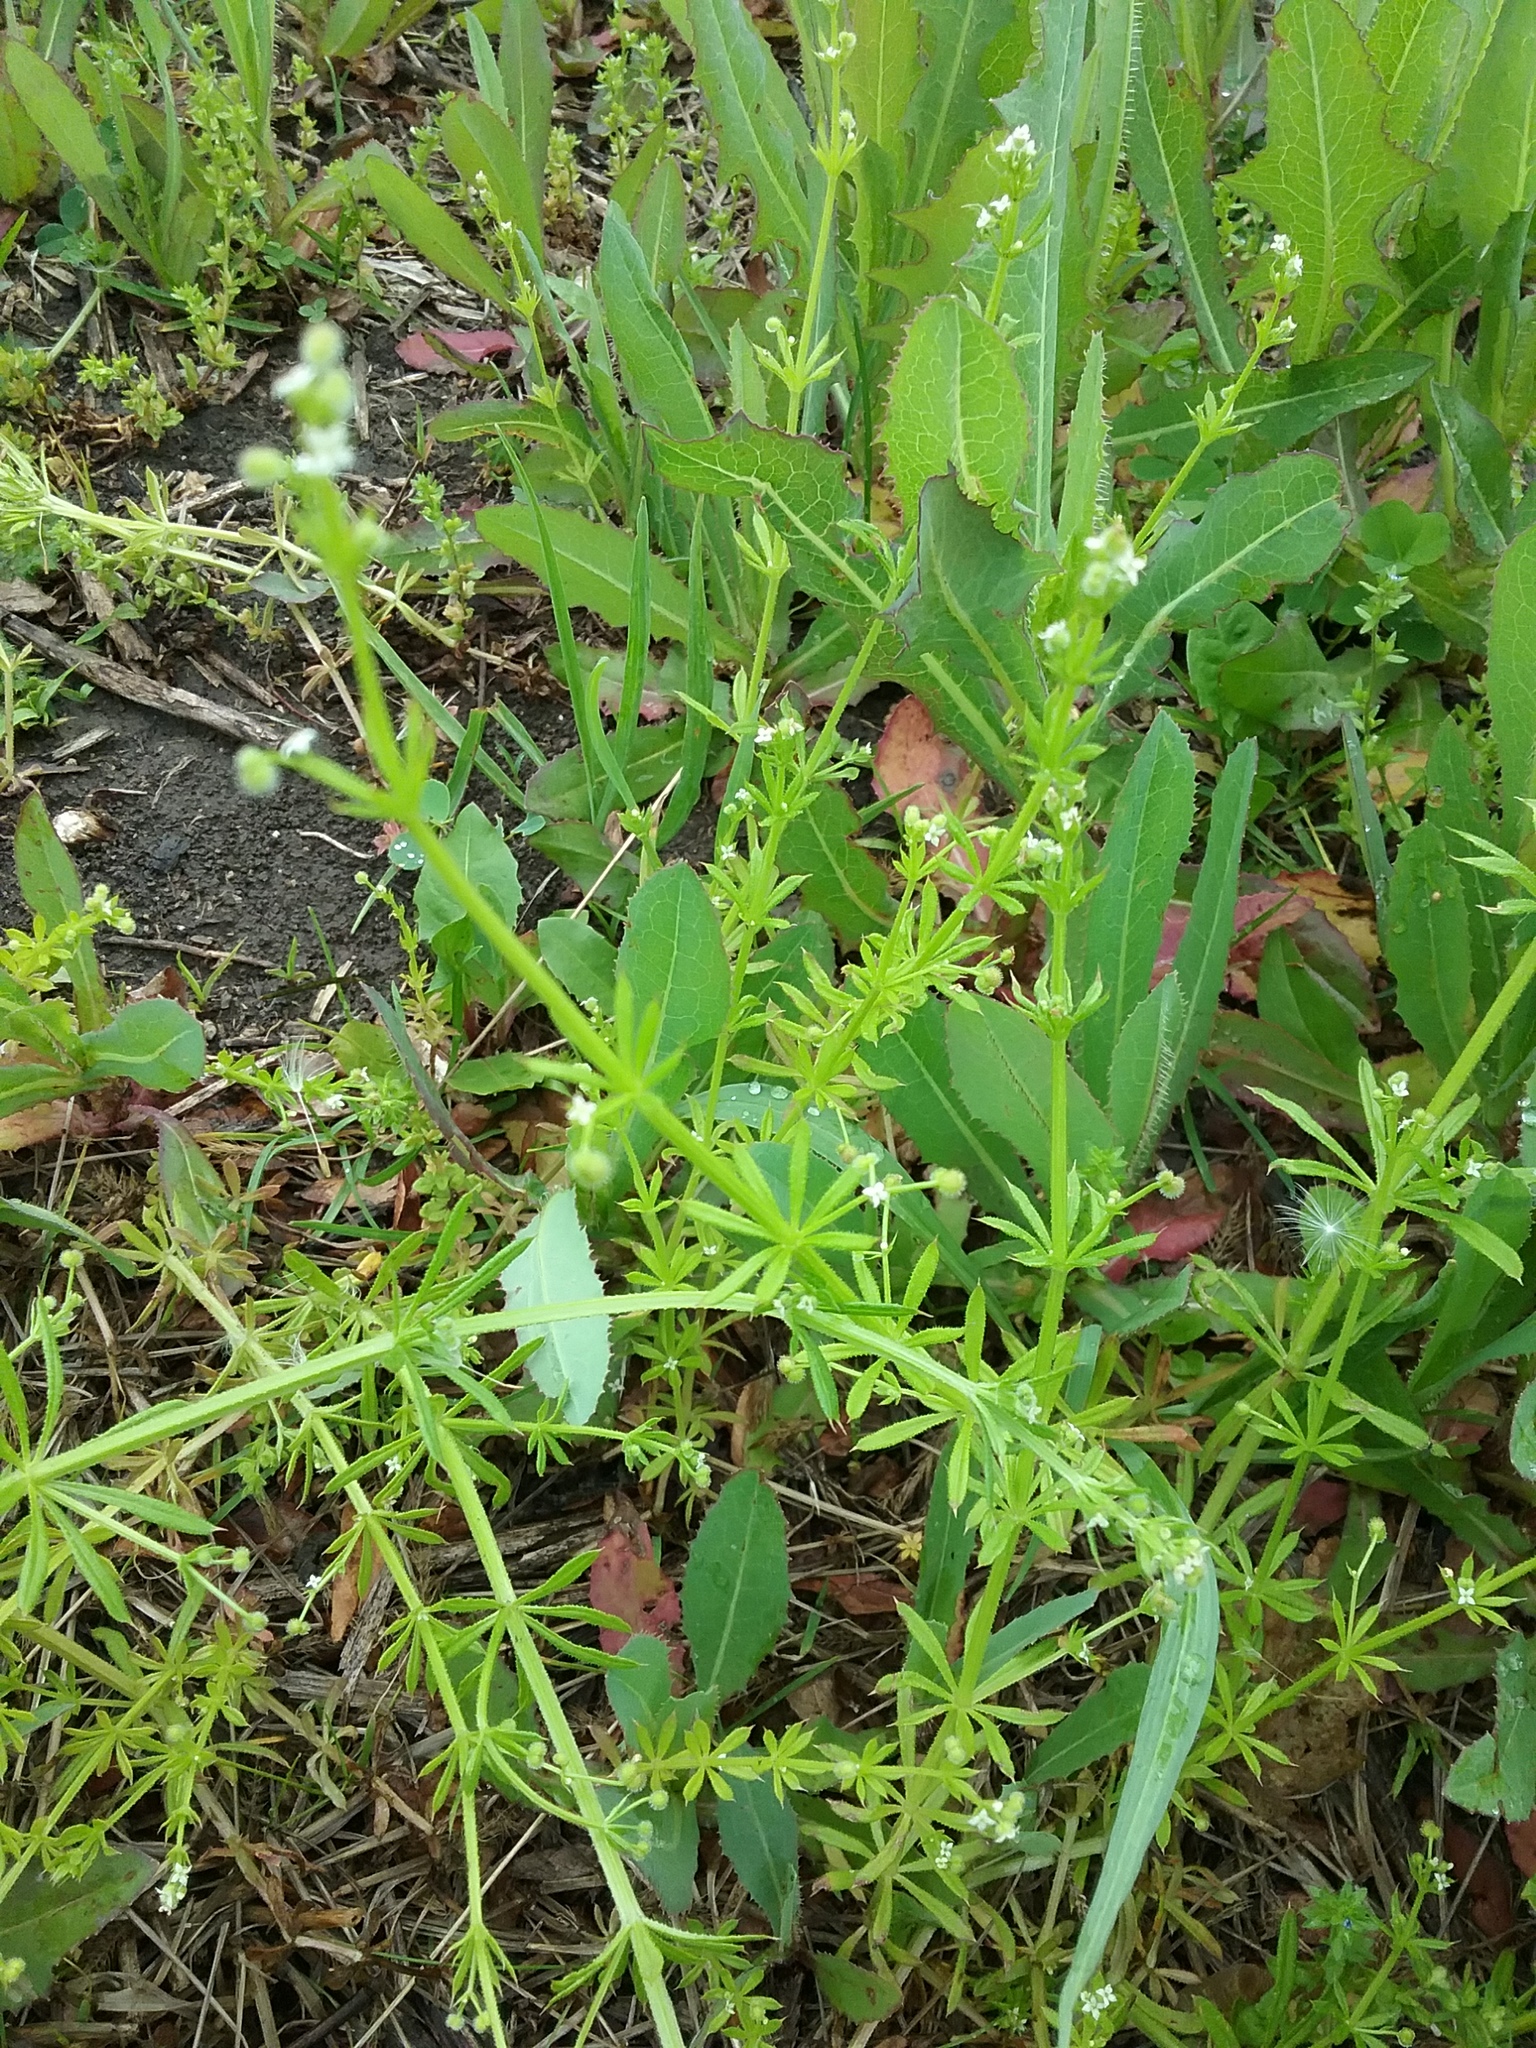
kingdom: Plantae
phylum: Tracheophyta
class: Magnoliopsida
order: Gentianales
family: Rubiaceae
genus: Galium
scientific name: Galium aparine
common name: Cleavers
